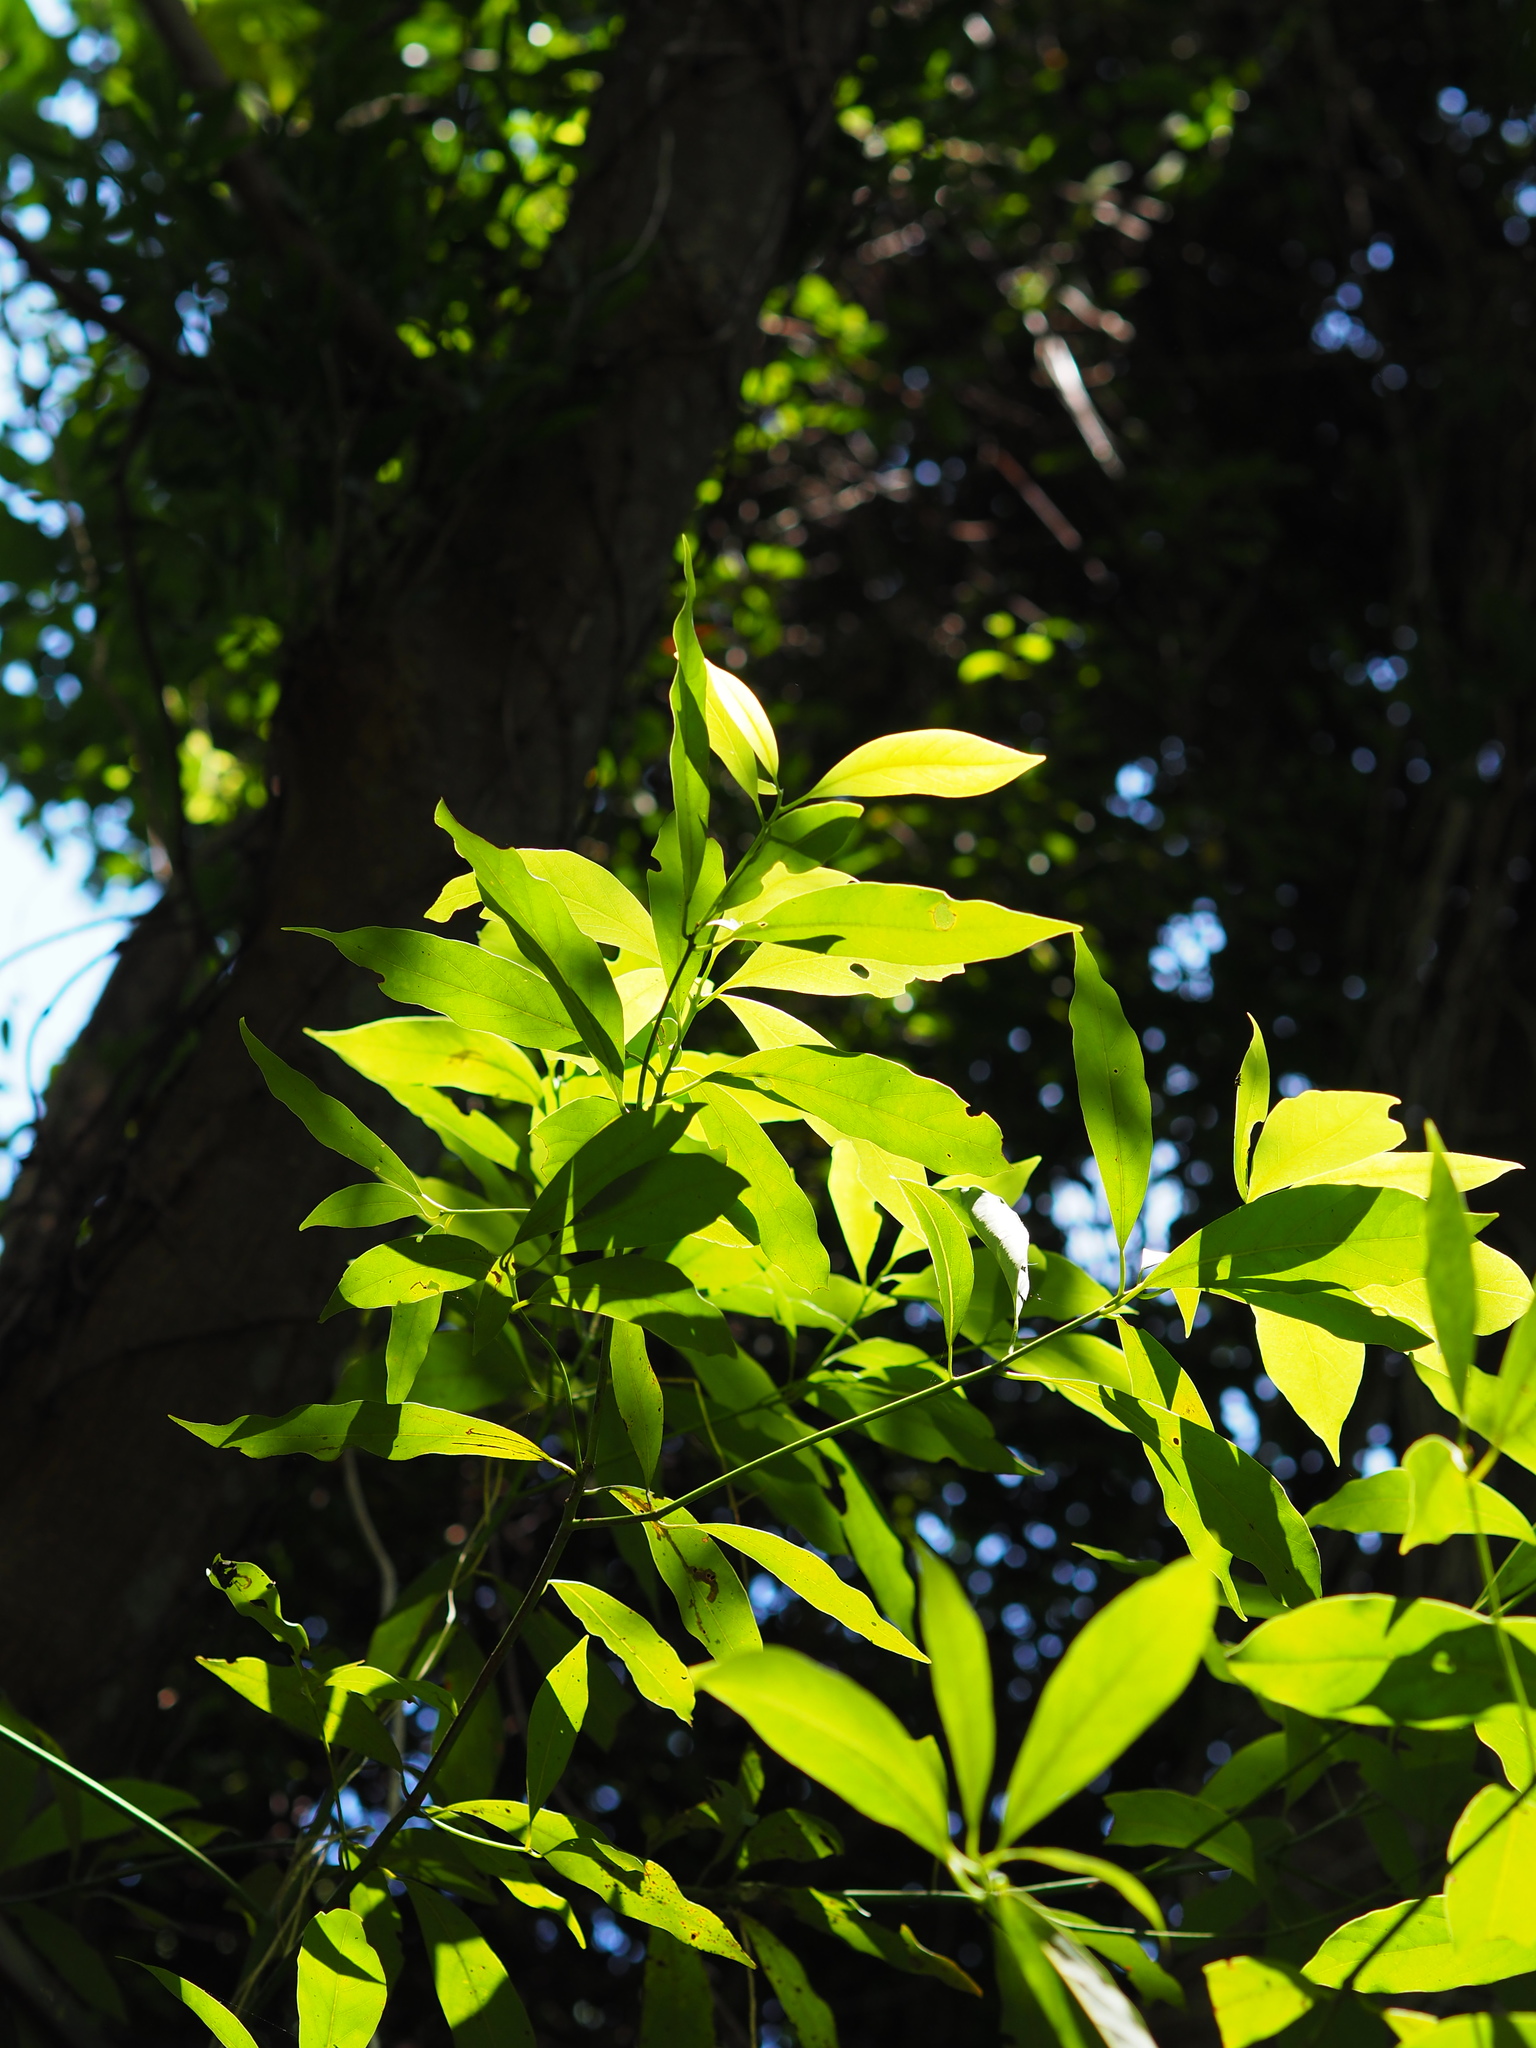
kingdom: Plantae
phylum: Tracheophyta
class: Magnoliopsida
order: Laurales
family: Lauraceae
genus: Machilus
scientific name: Machilus zuihoensis
